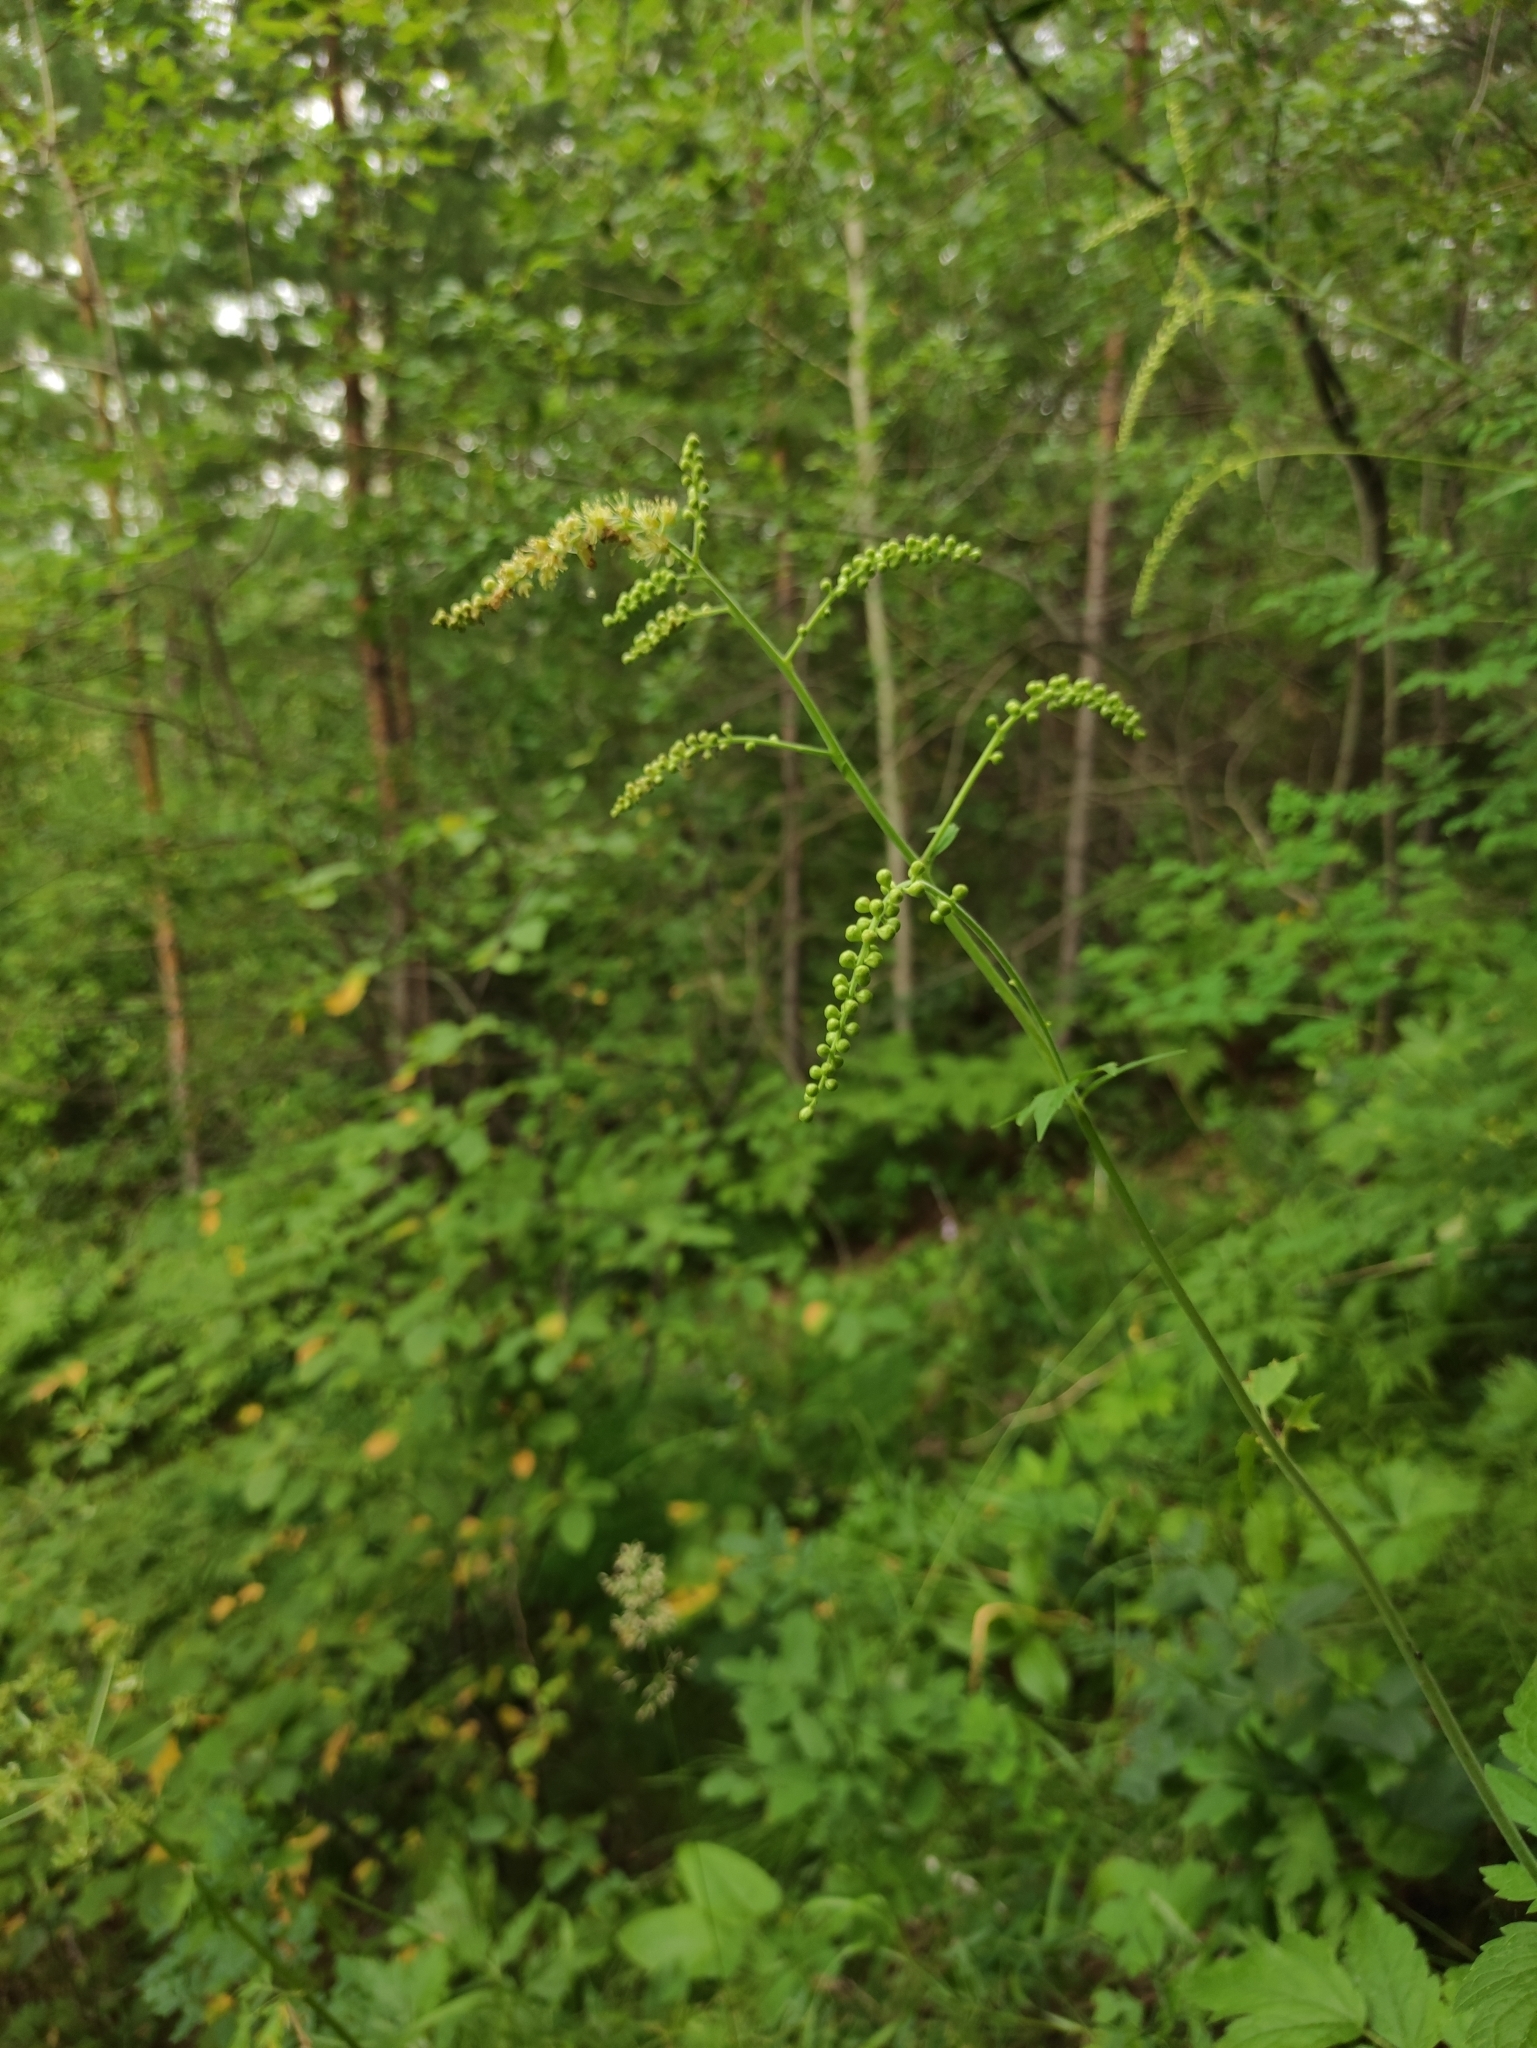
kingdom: Plantae
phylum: Tracheophyta
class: Magnoliopsida
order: Ranunculales
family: Ranunculaceae
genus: Actaea
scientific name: Actaea cimicifuga
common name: Chinese cimicifuga
